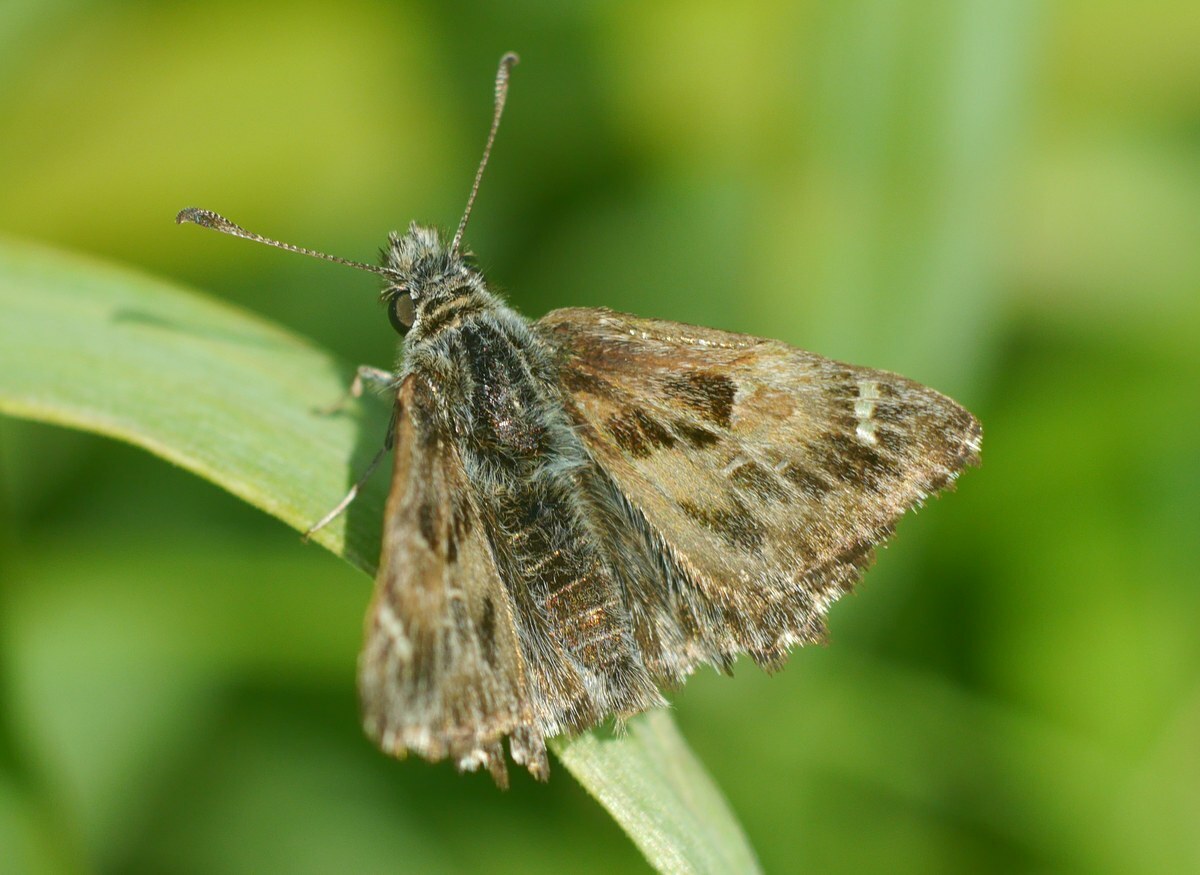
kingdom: Animalia
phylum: Arthropoda
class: Insecta
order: Lepidoptera
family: Hesperiidae
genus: Carcharodus
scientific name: Carcharodus alceae
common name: Mallow skipper
